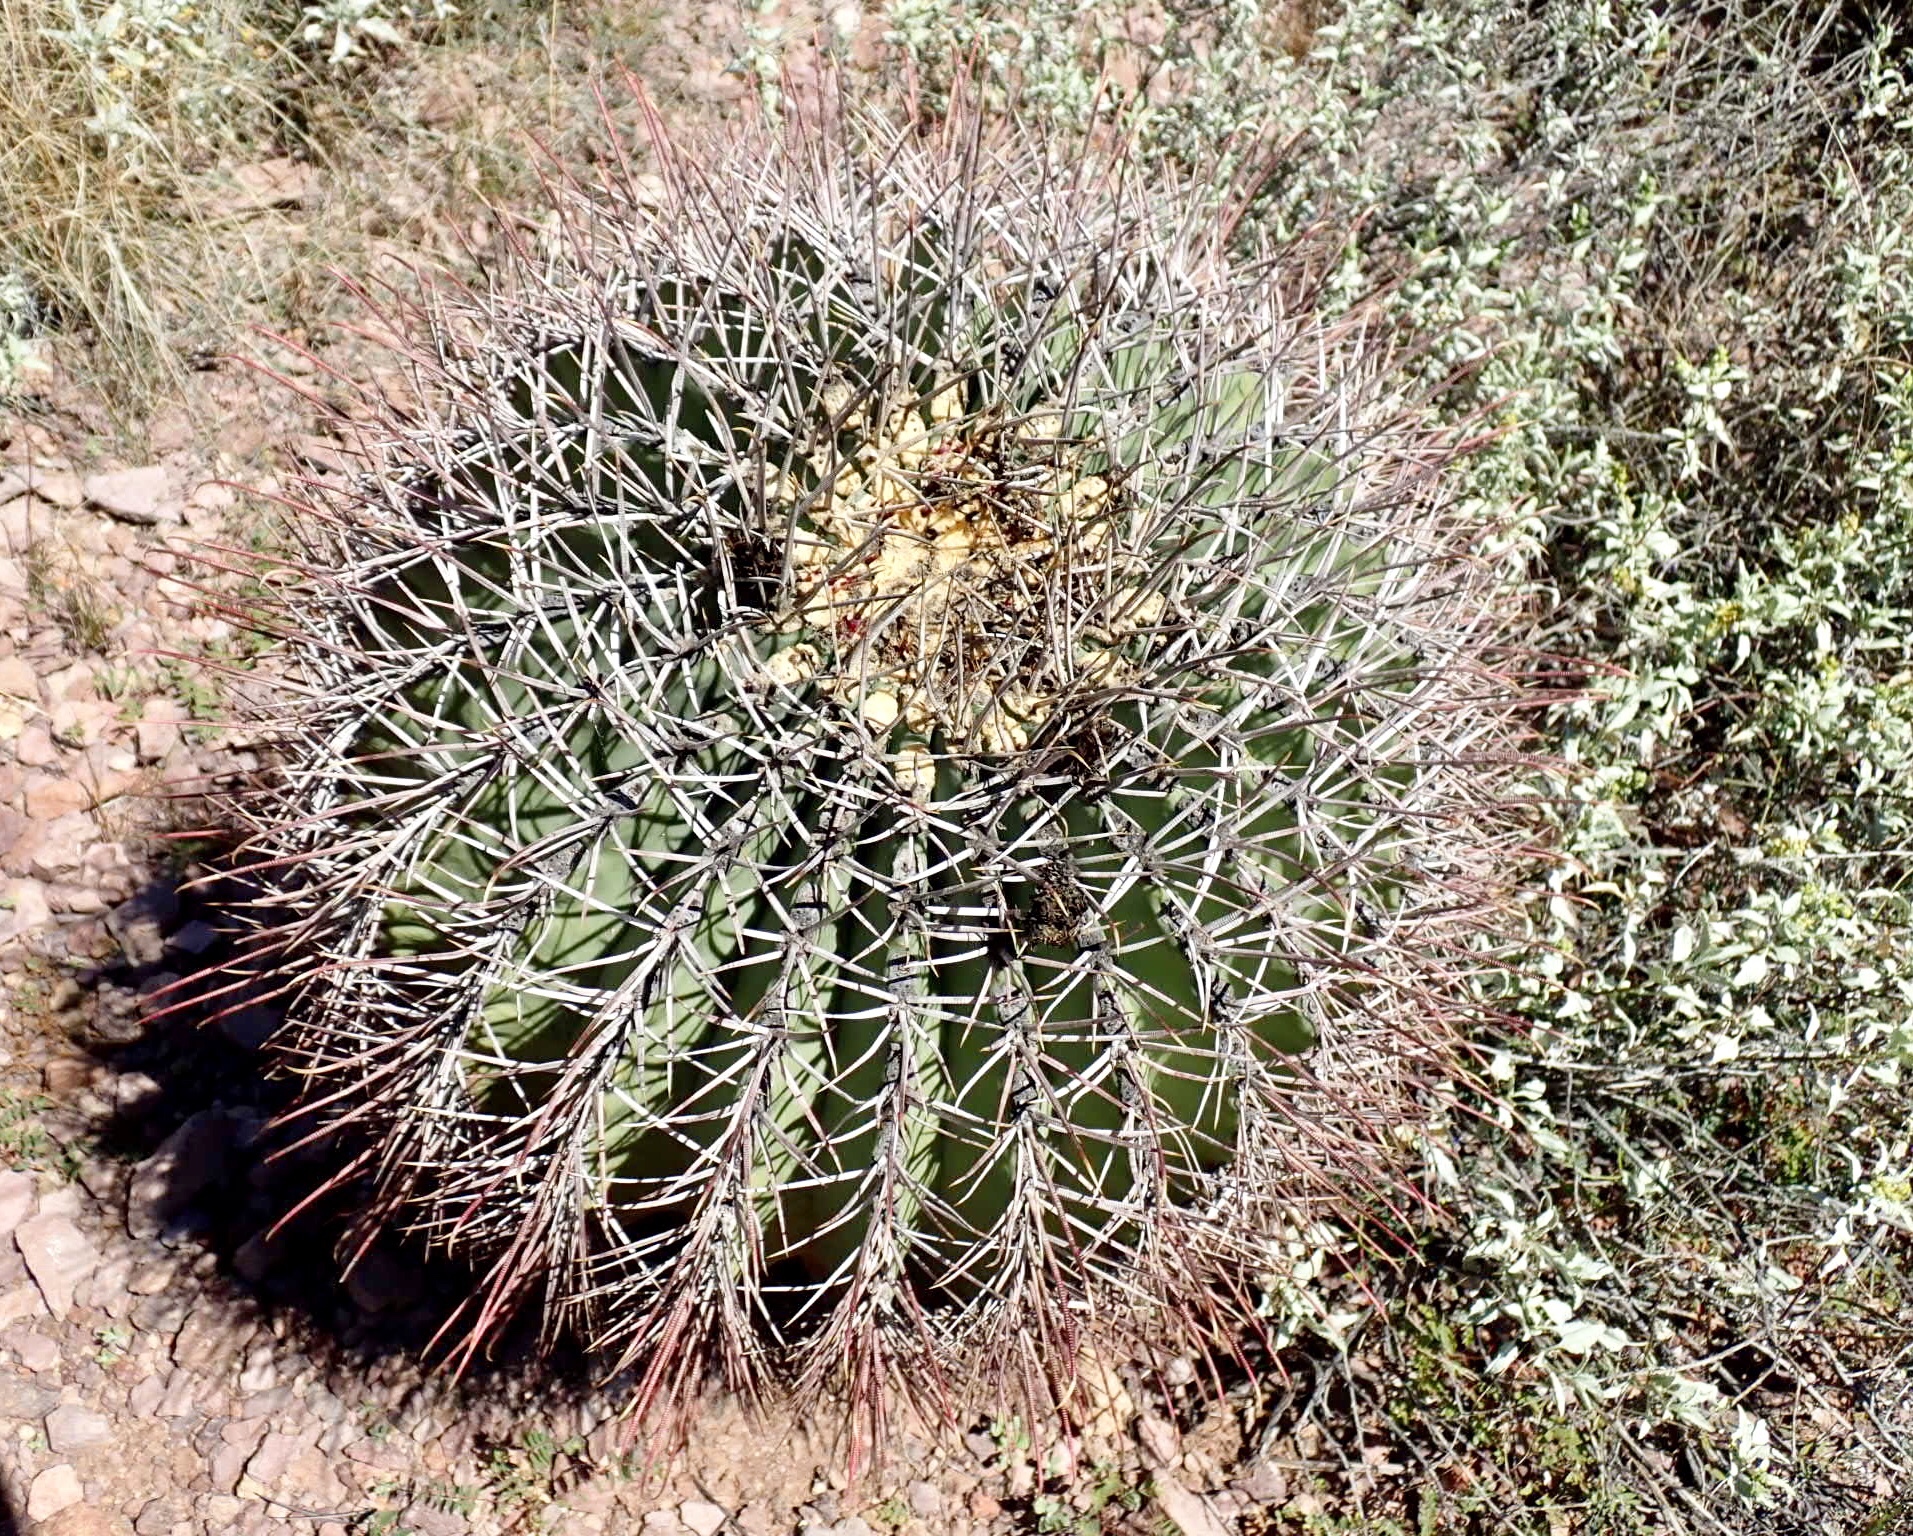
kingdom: Plantae
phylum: Tracheophyta
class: Magnoliopsida
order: Caryophyllales
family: Cactaceae
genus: Ferocactus
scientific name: Ferocactus emoryi
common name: Emory's barrel cactus
